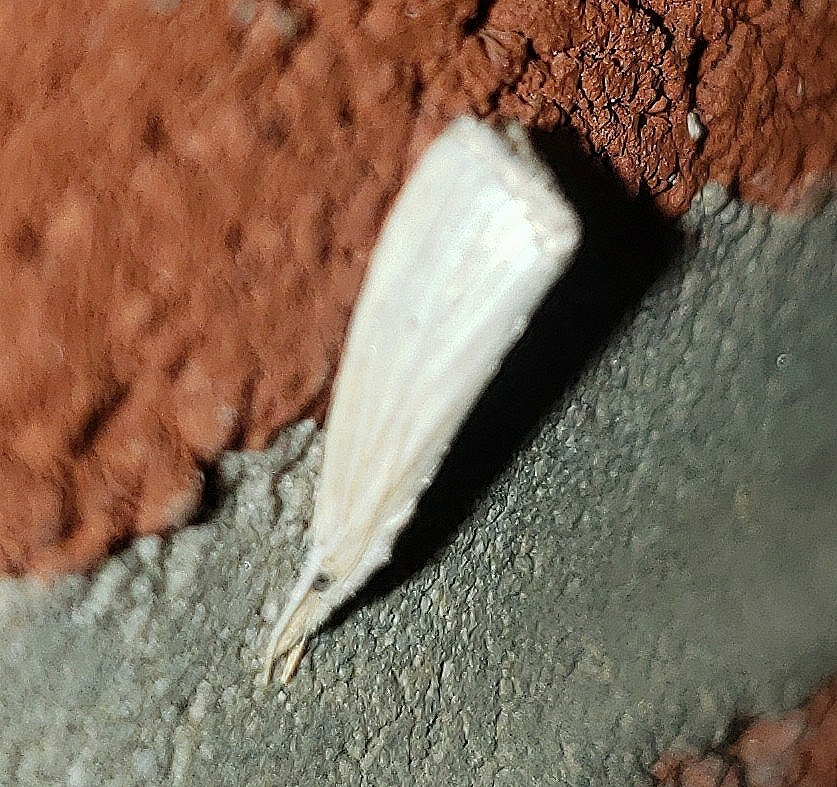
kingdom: Animalia
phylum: Arthropoda
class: Insecta
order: Lepidoptera
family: Crambidae
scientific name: Crambidae
